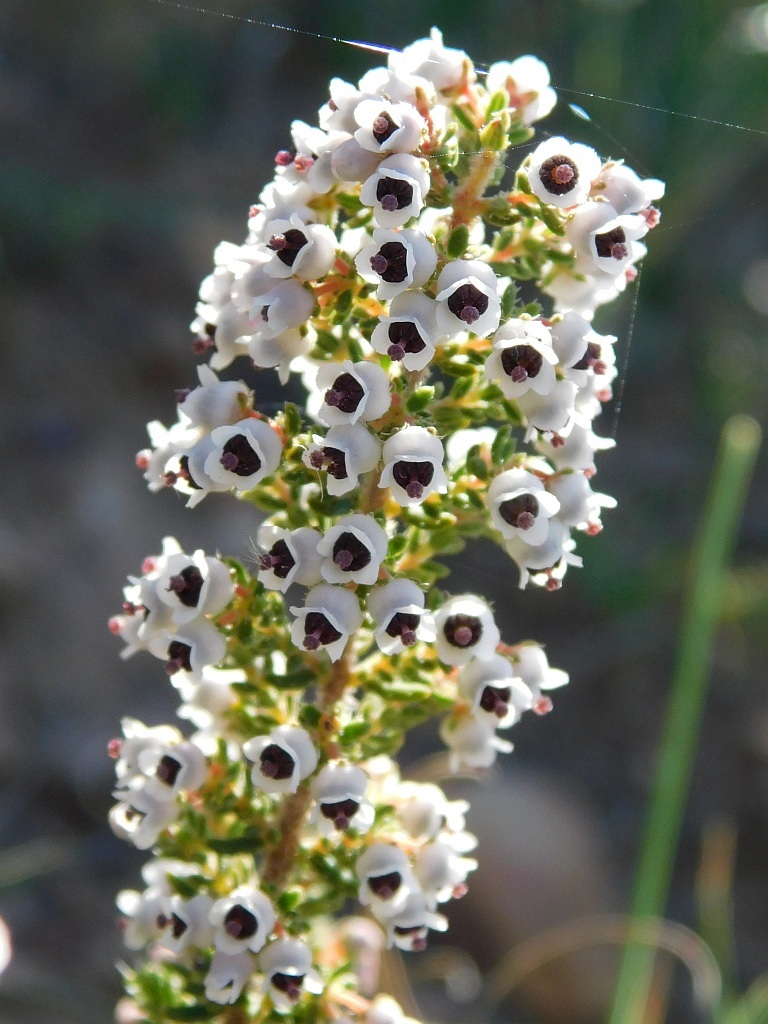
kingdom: Plantae
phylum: Tracheophyta
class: Magnoliopsida
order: Ericales
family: Ericaceae
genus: Erica
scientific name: Erica setacea
